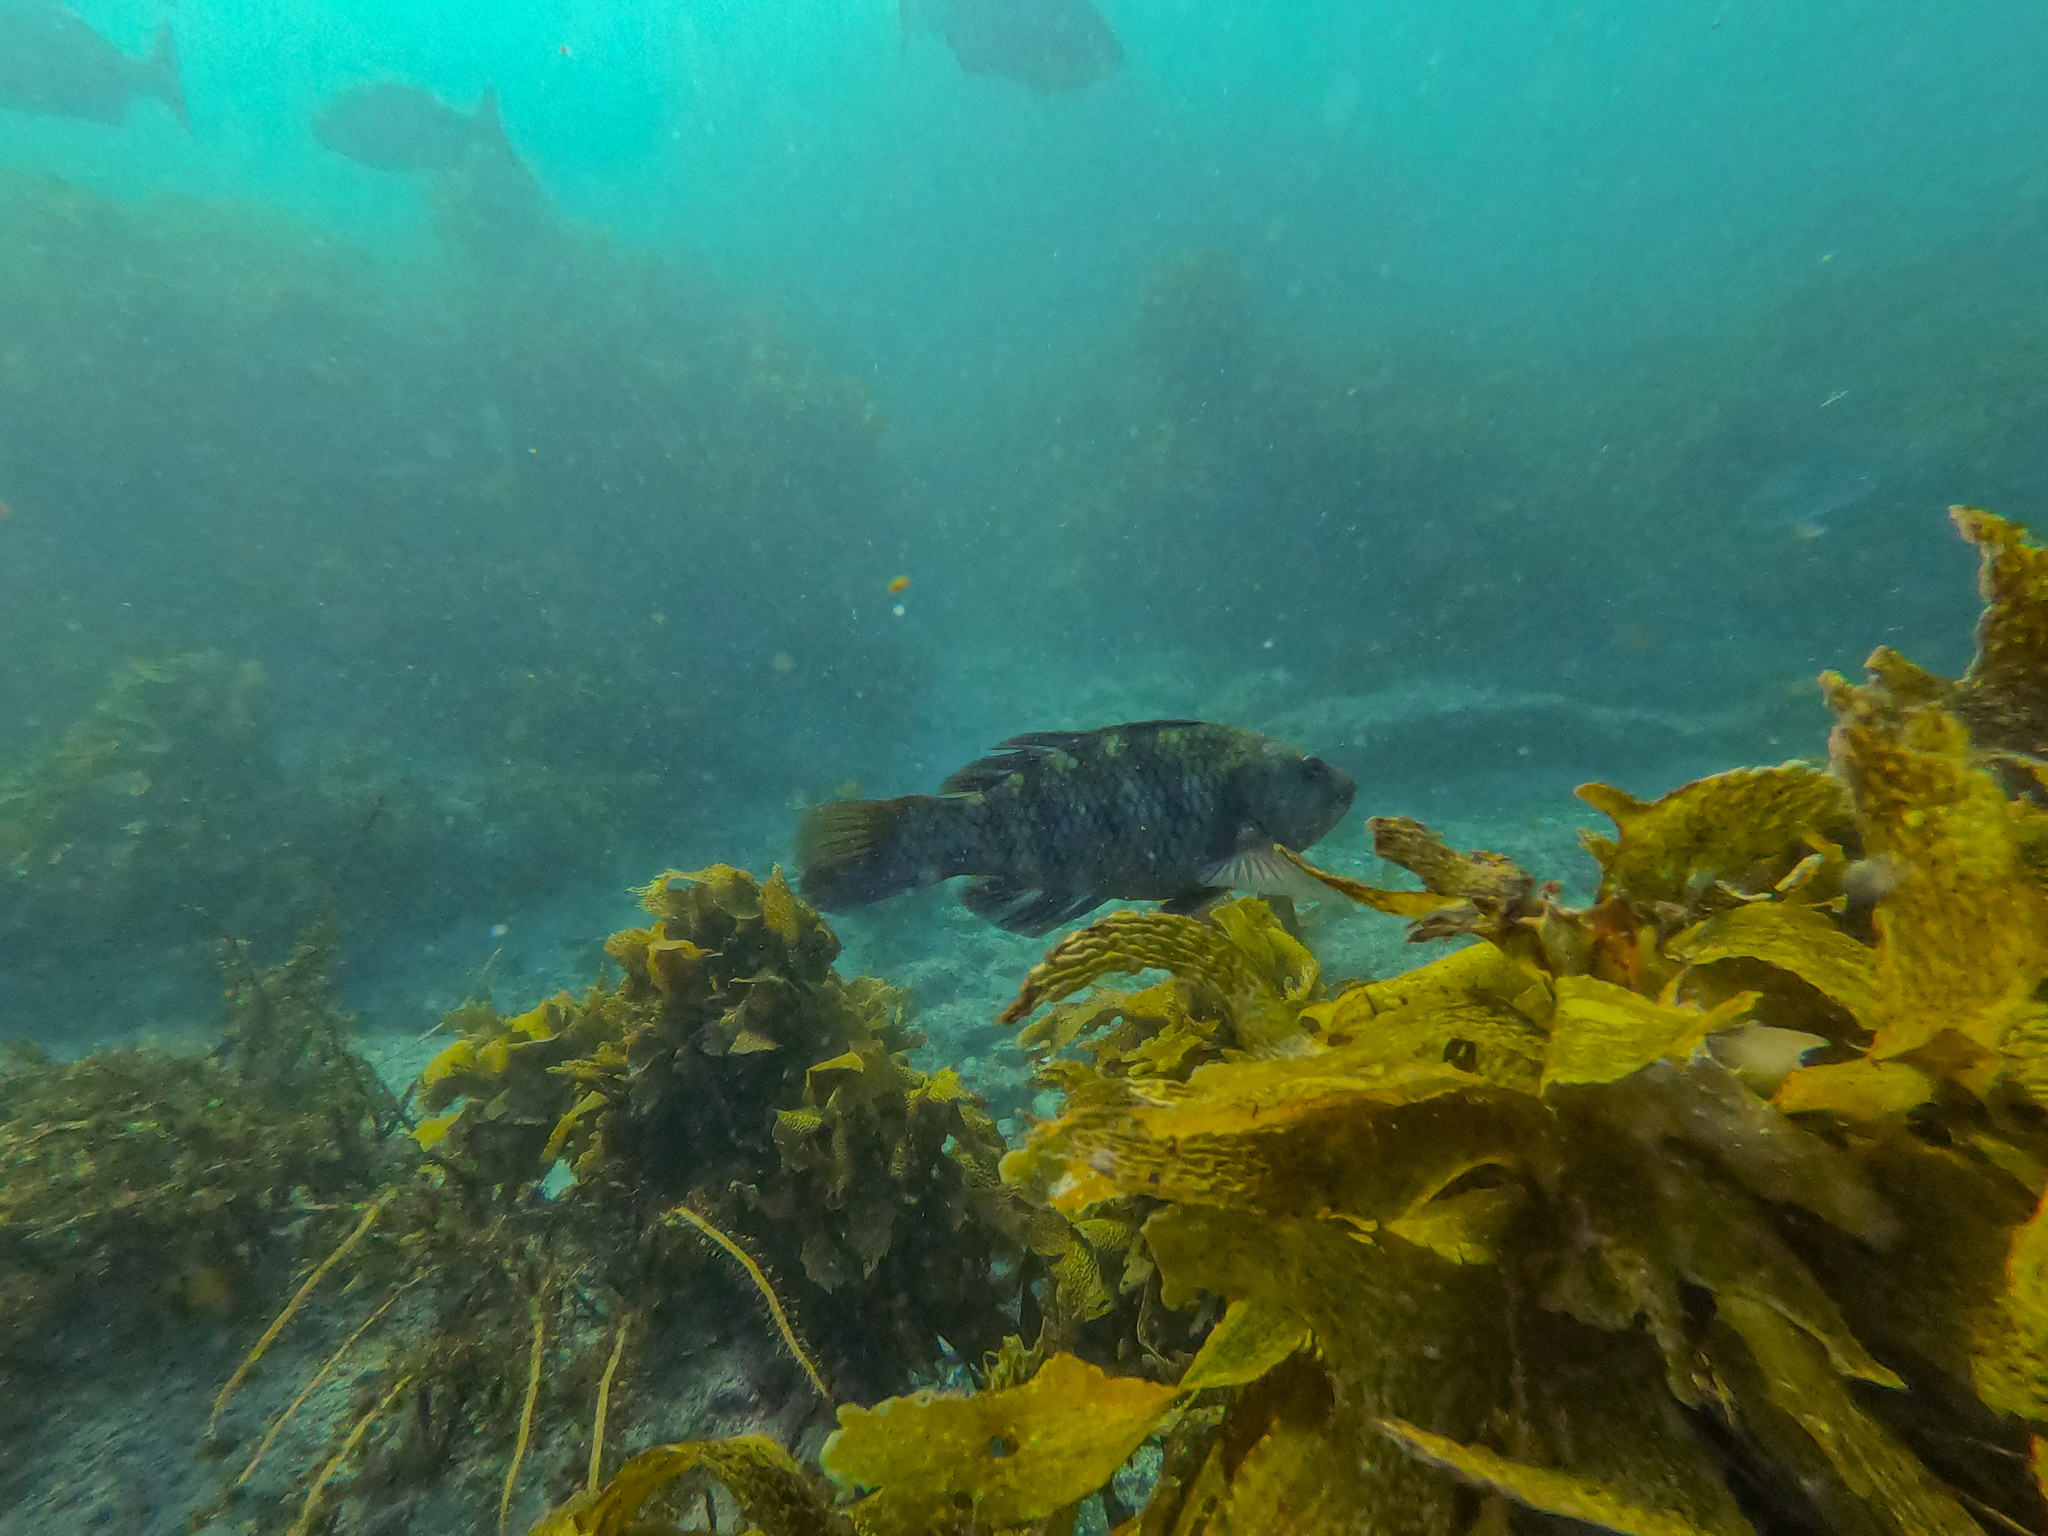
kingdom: Animalia
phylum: Chordata
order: Perciformes
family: Labridae
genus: Notolabrus
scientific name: Notolabrus fucicola
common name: Banded parrotfish
